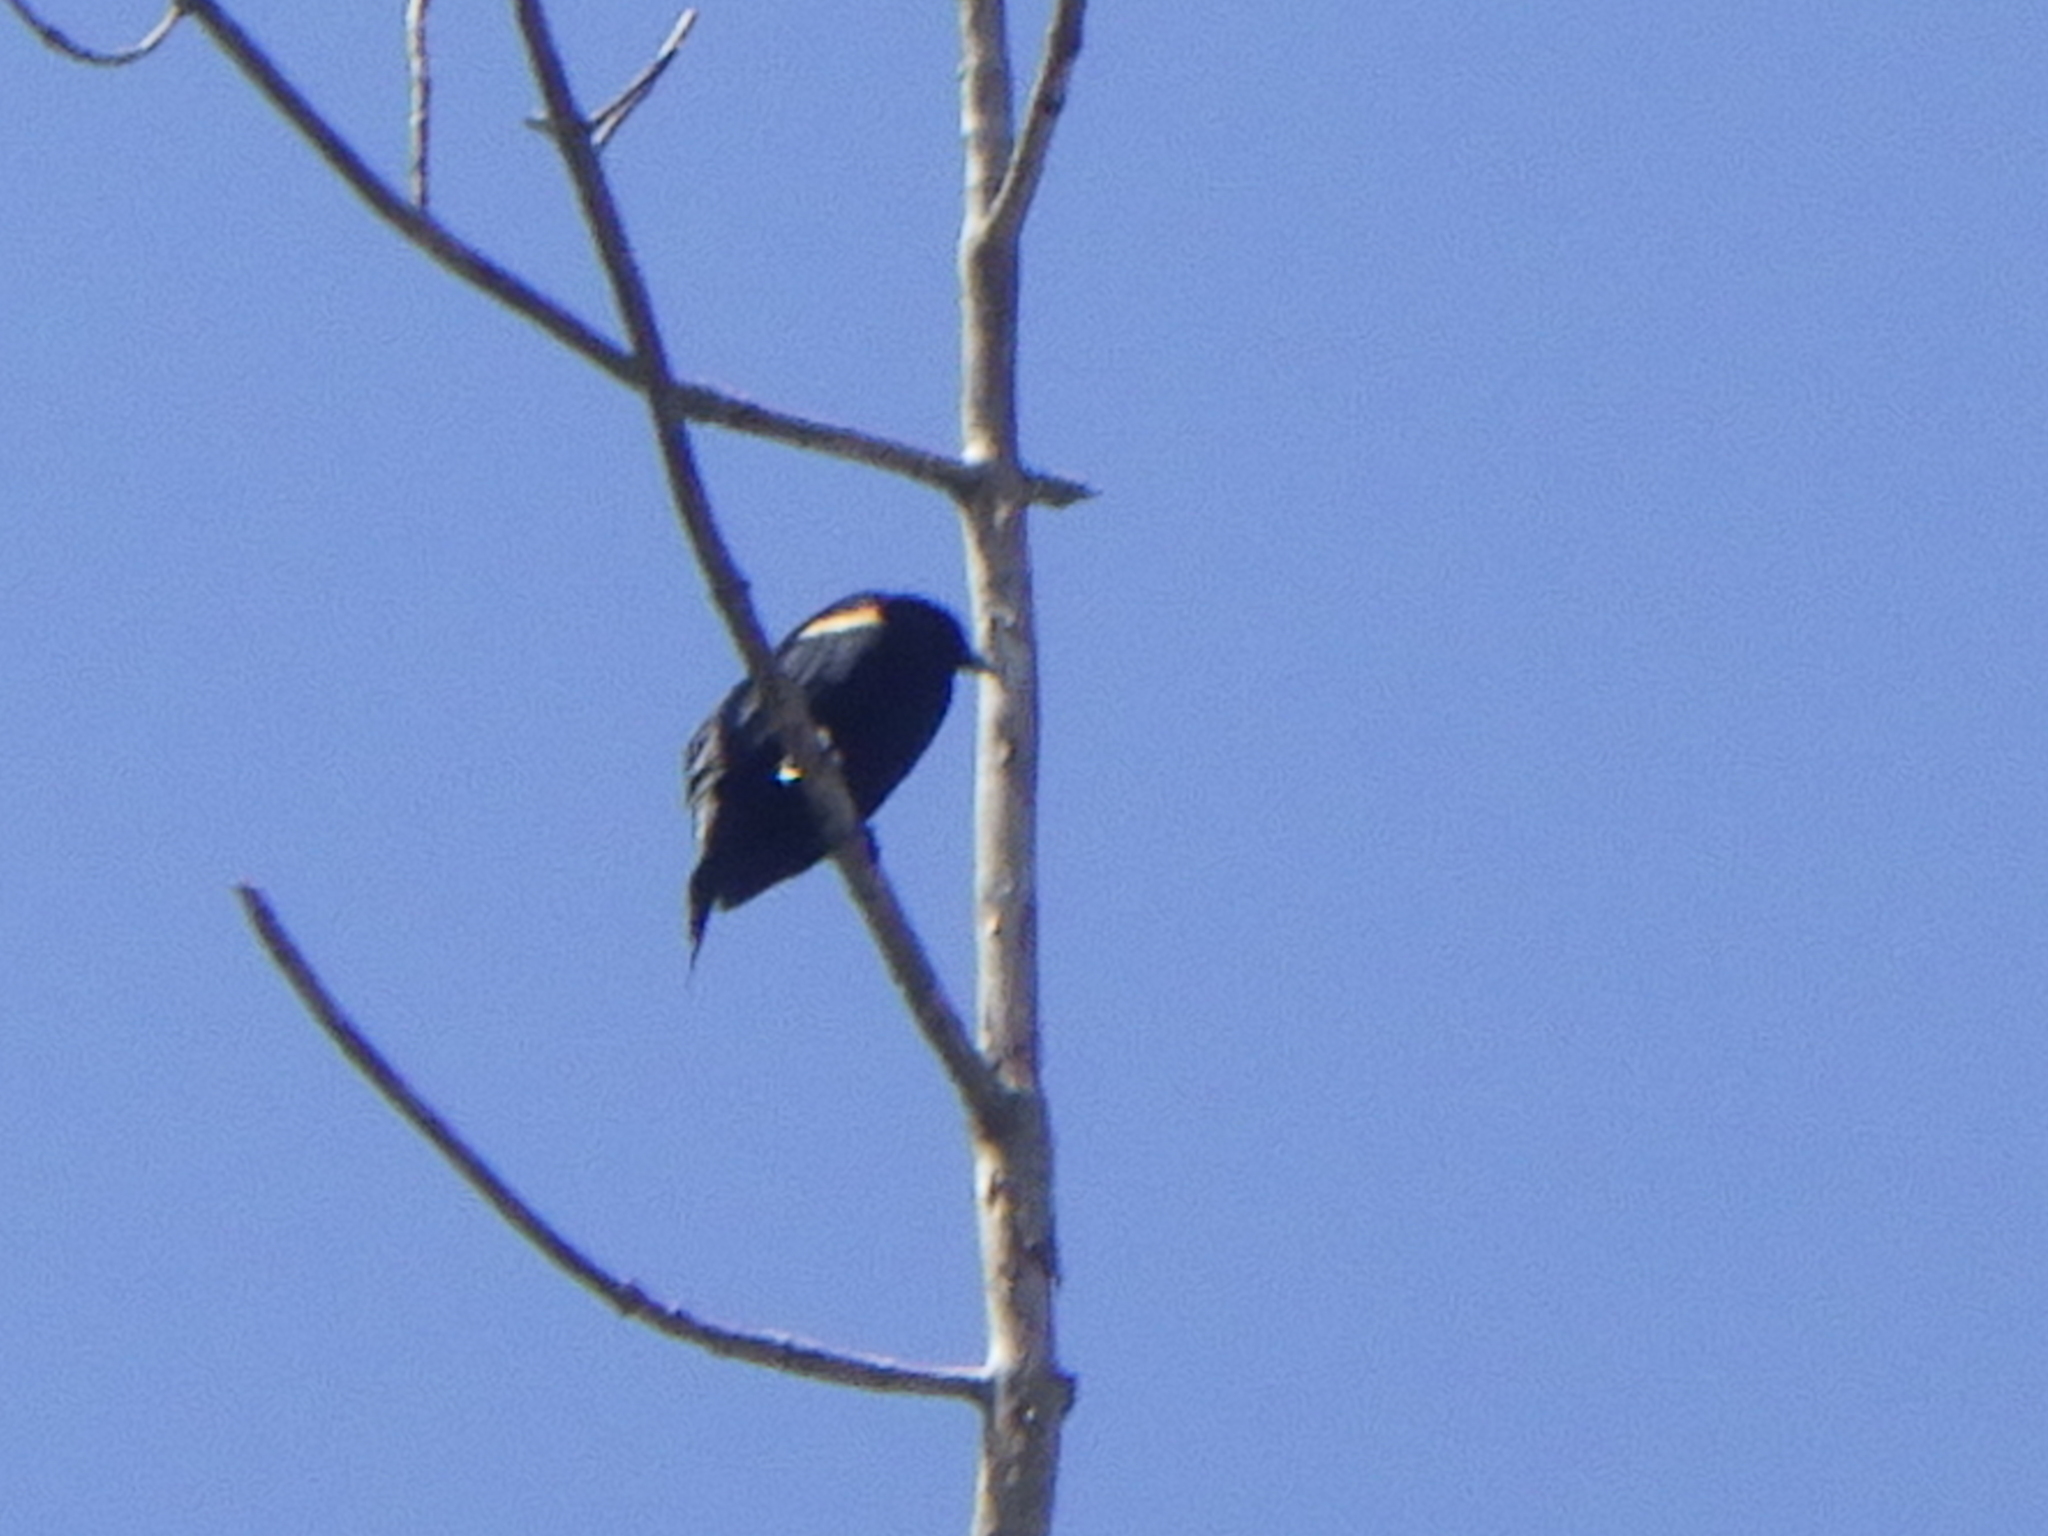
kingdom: Animalia
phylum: Chordata
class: Aves
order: Passeriformes
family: Icteridae
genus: Agelaius
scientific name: Agelaius phoeniceus
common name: Red-winged blackbird
